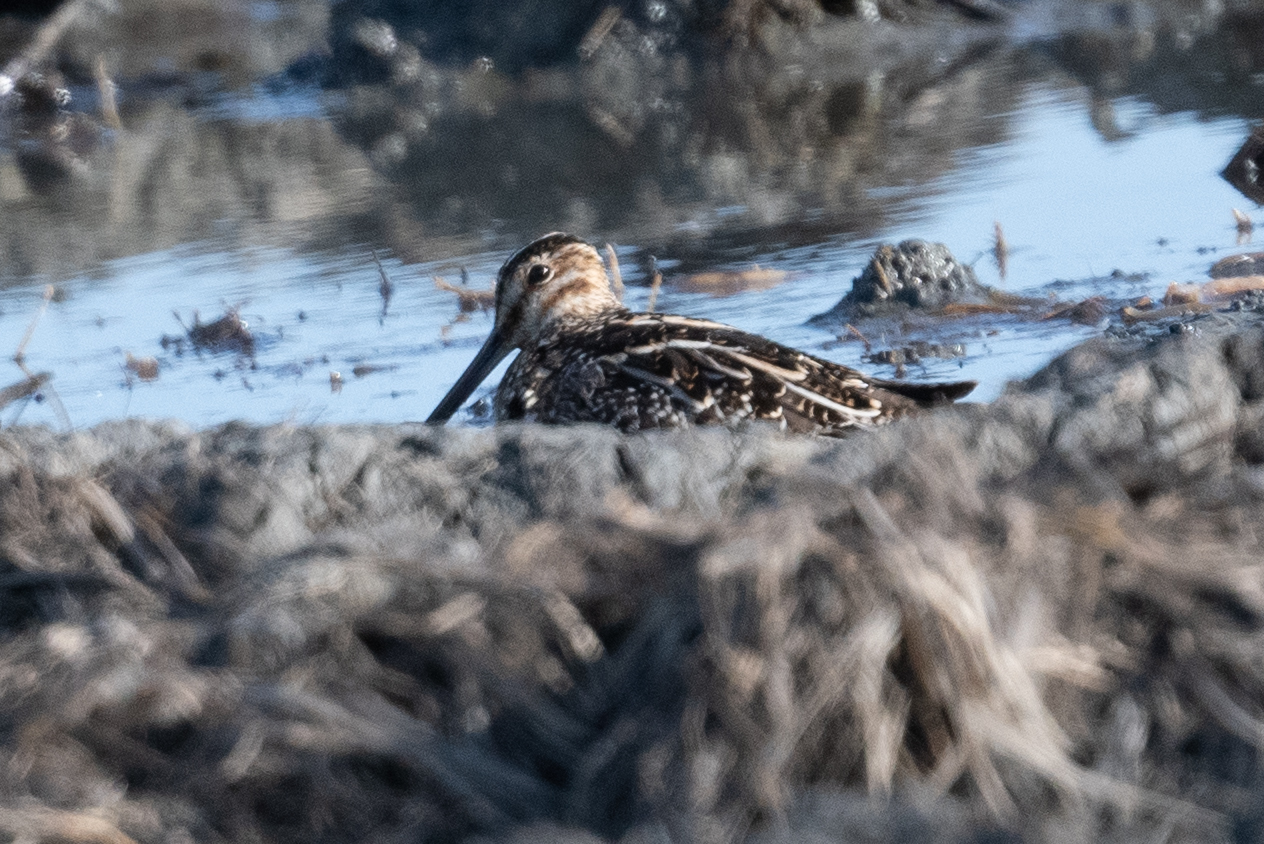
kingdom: Animalia
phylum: Chordata
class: Aves
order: Charadriiformes
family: Scolopacidae
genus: Gallinago
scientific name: Gallinago delicata
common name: Wilson's snipe
